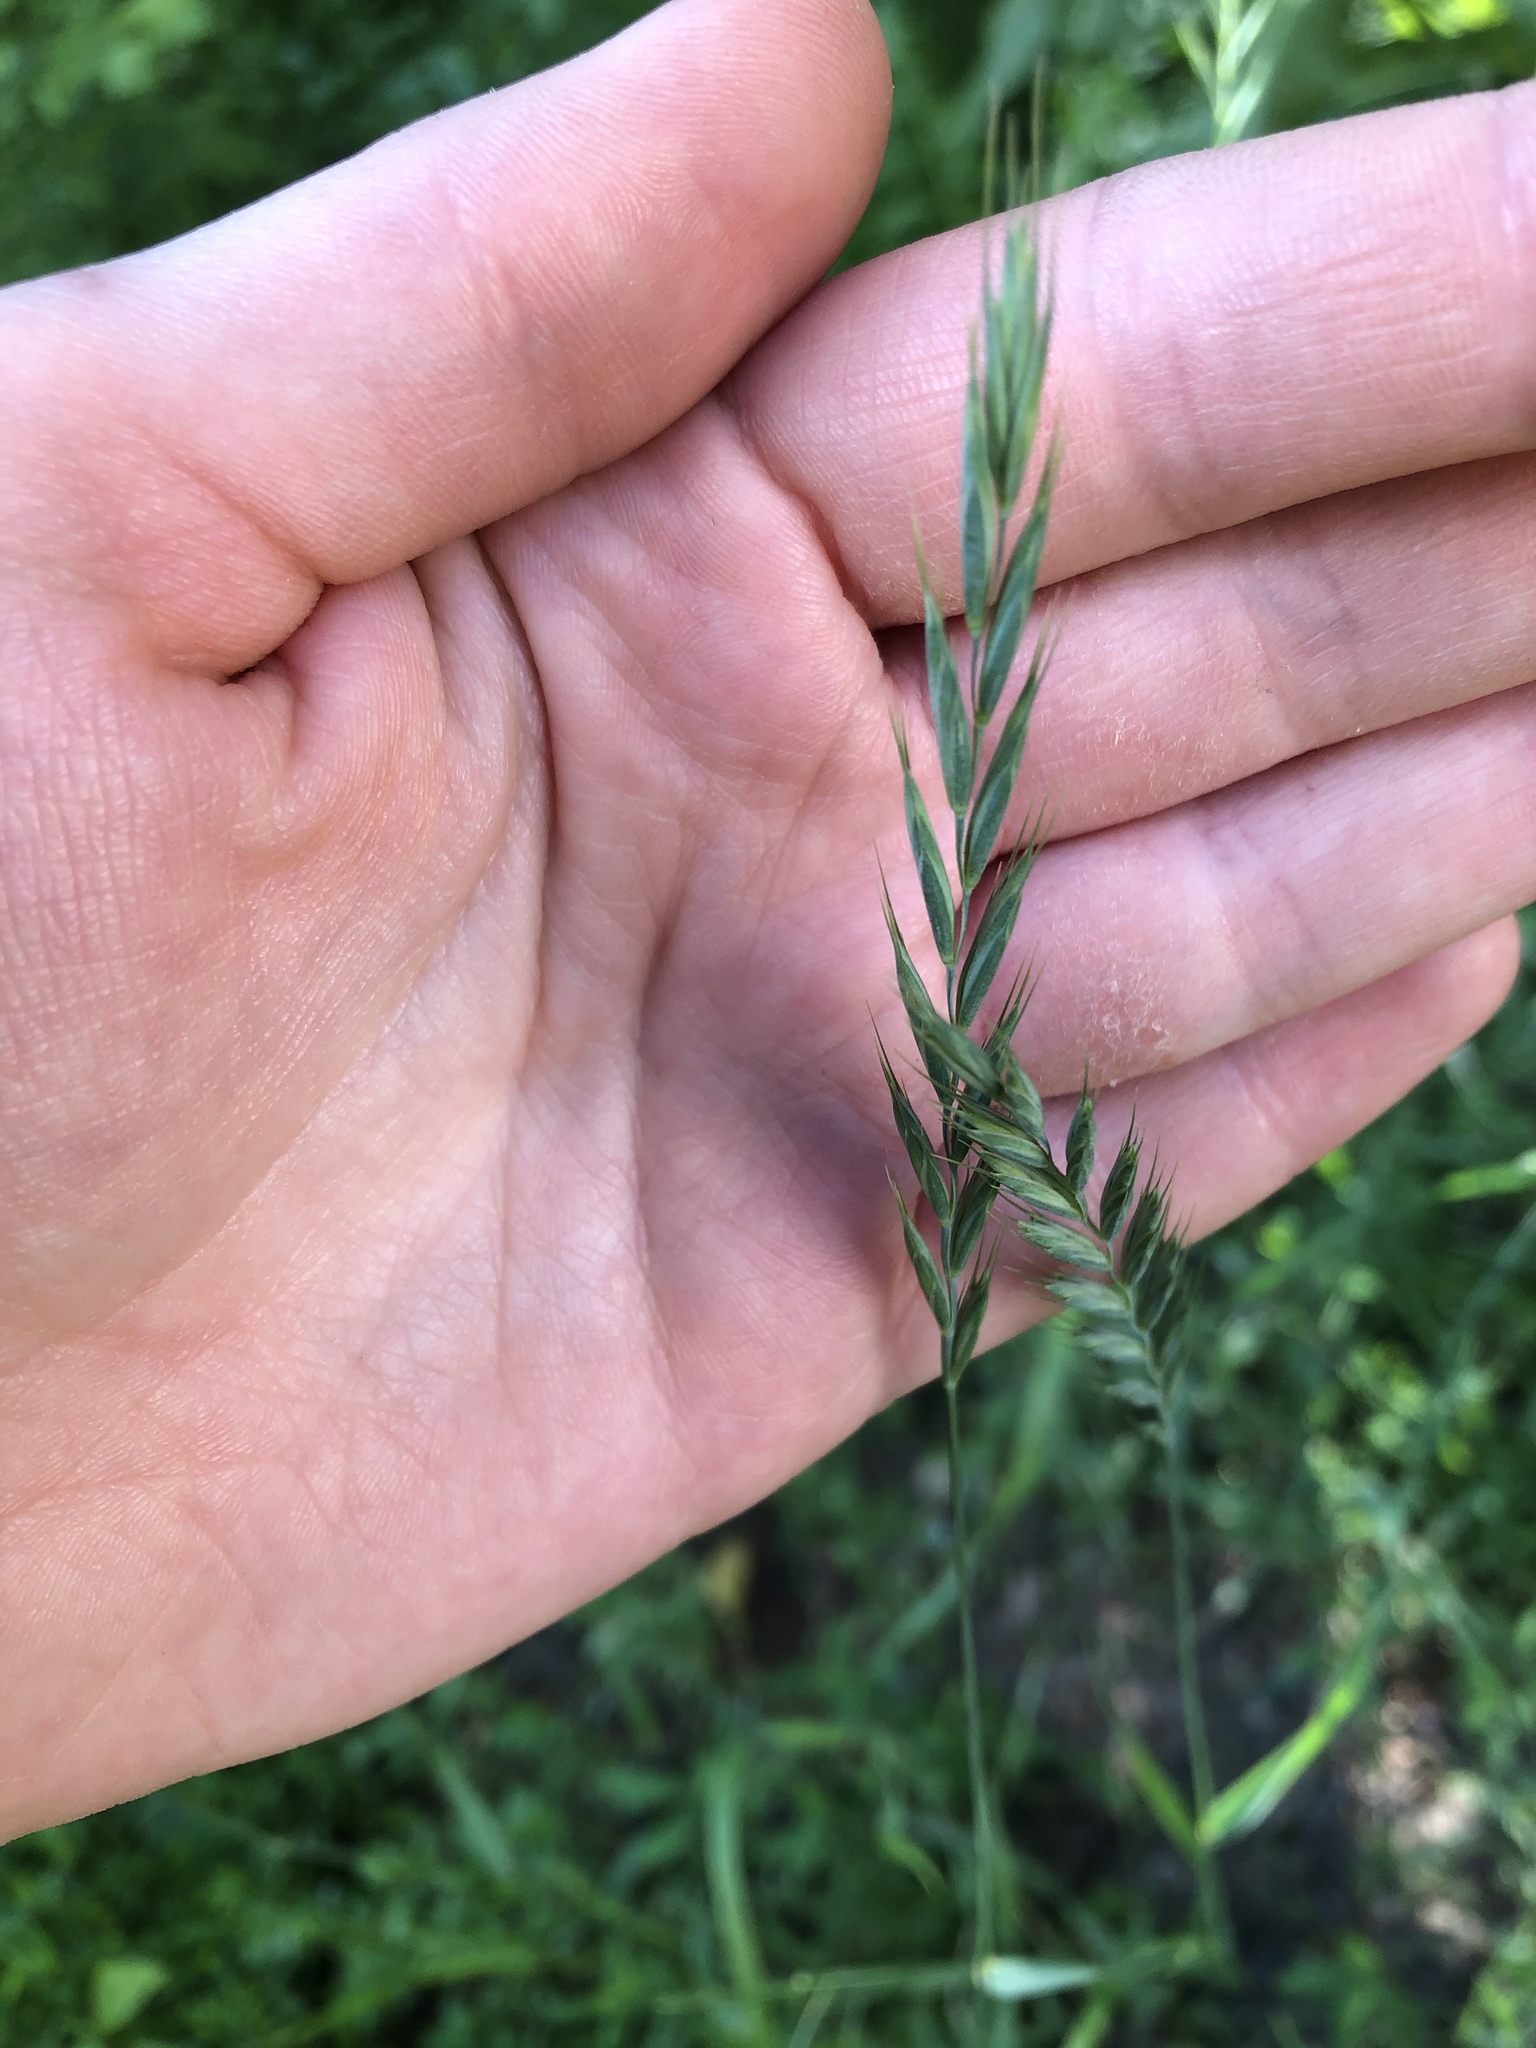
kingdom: Plantae
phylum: Tracheophyta
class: Liliopsida
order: Poales
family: Poaceae
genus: Elymus
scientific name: Elymus repens
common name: Quackgrass
